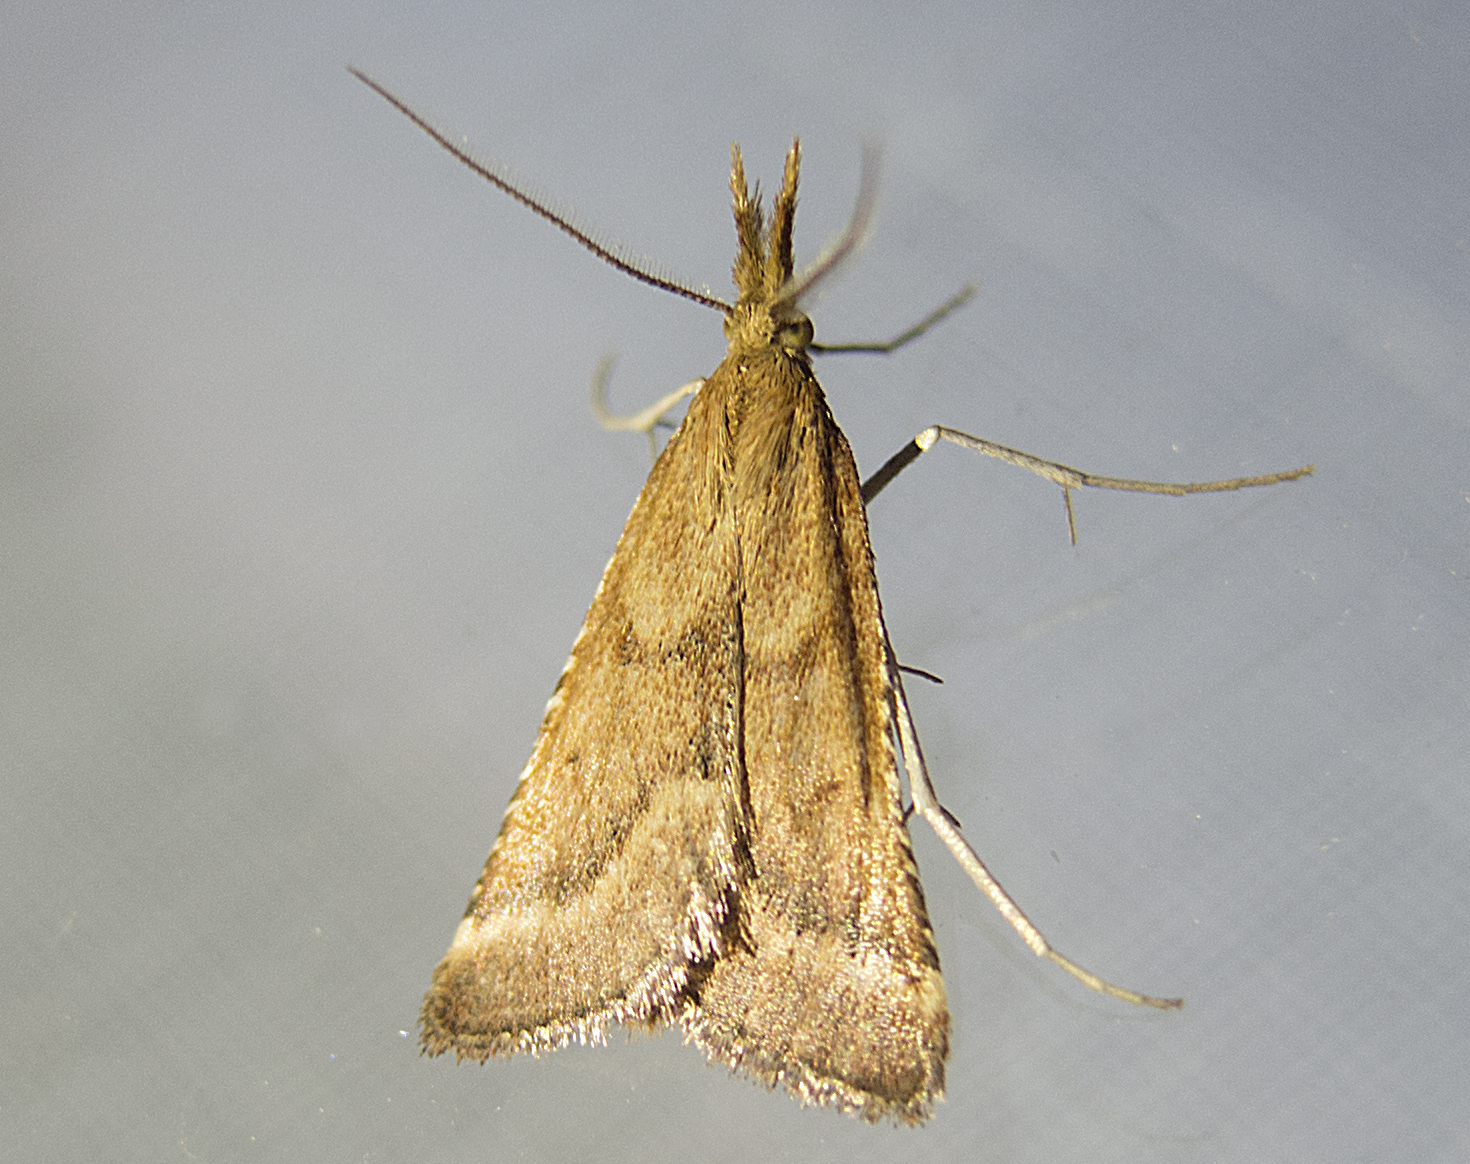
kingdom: Animalia
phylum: Arthropoda
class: Insecta
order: Lepidoptera
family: Pyralidae
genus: Synaphe
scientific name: Synaphe punctalis
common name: Long-legged tabby
